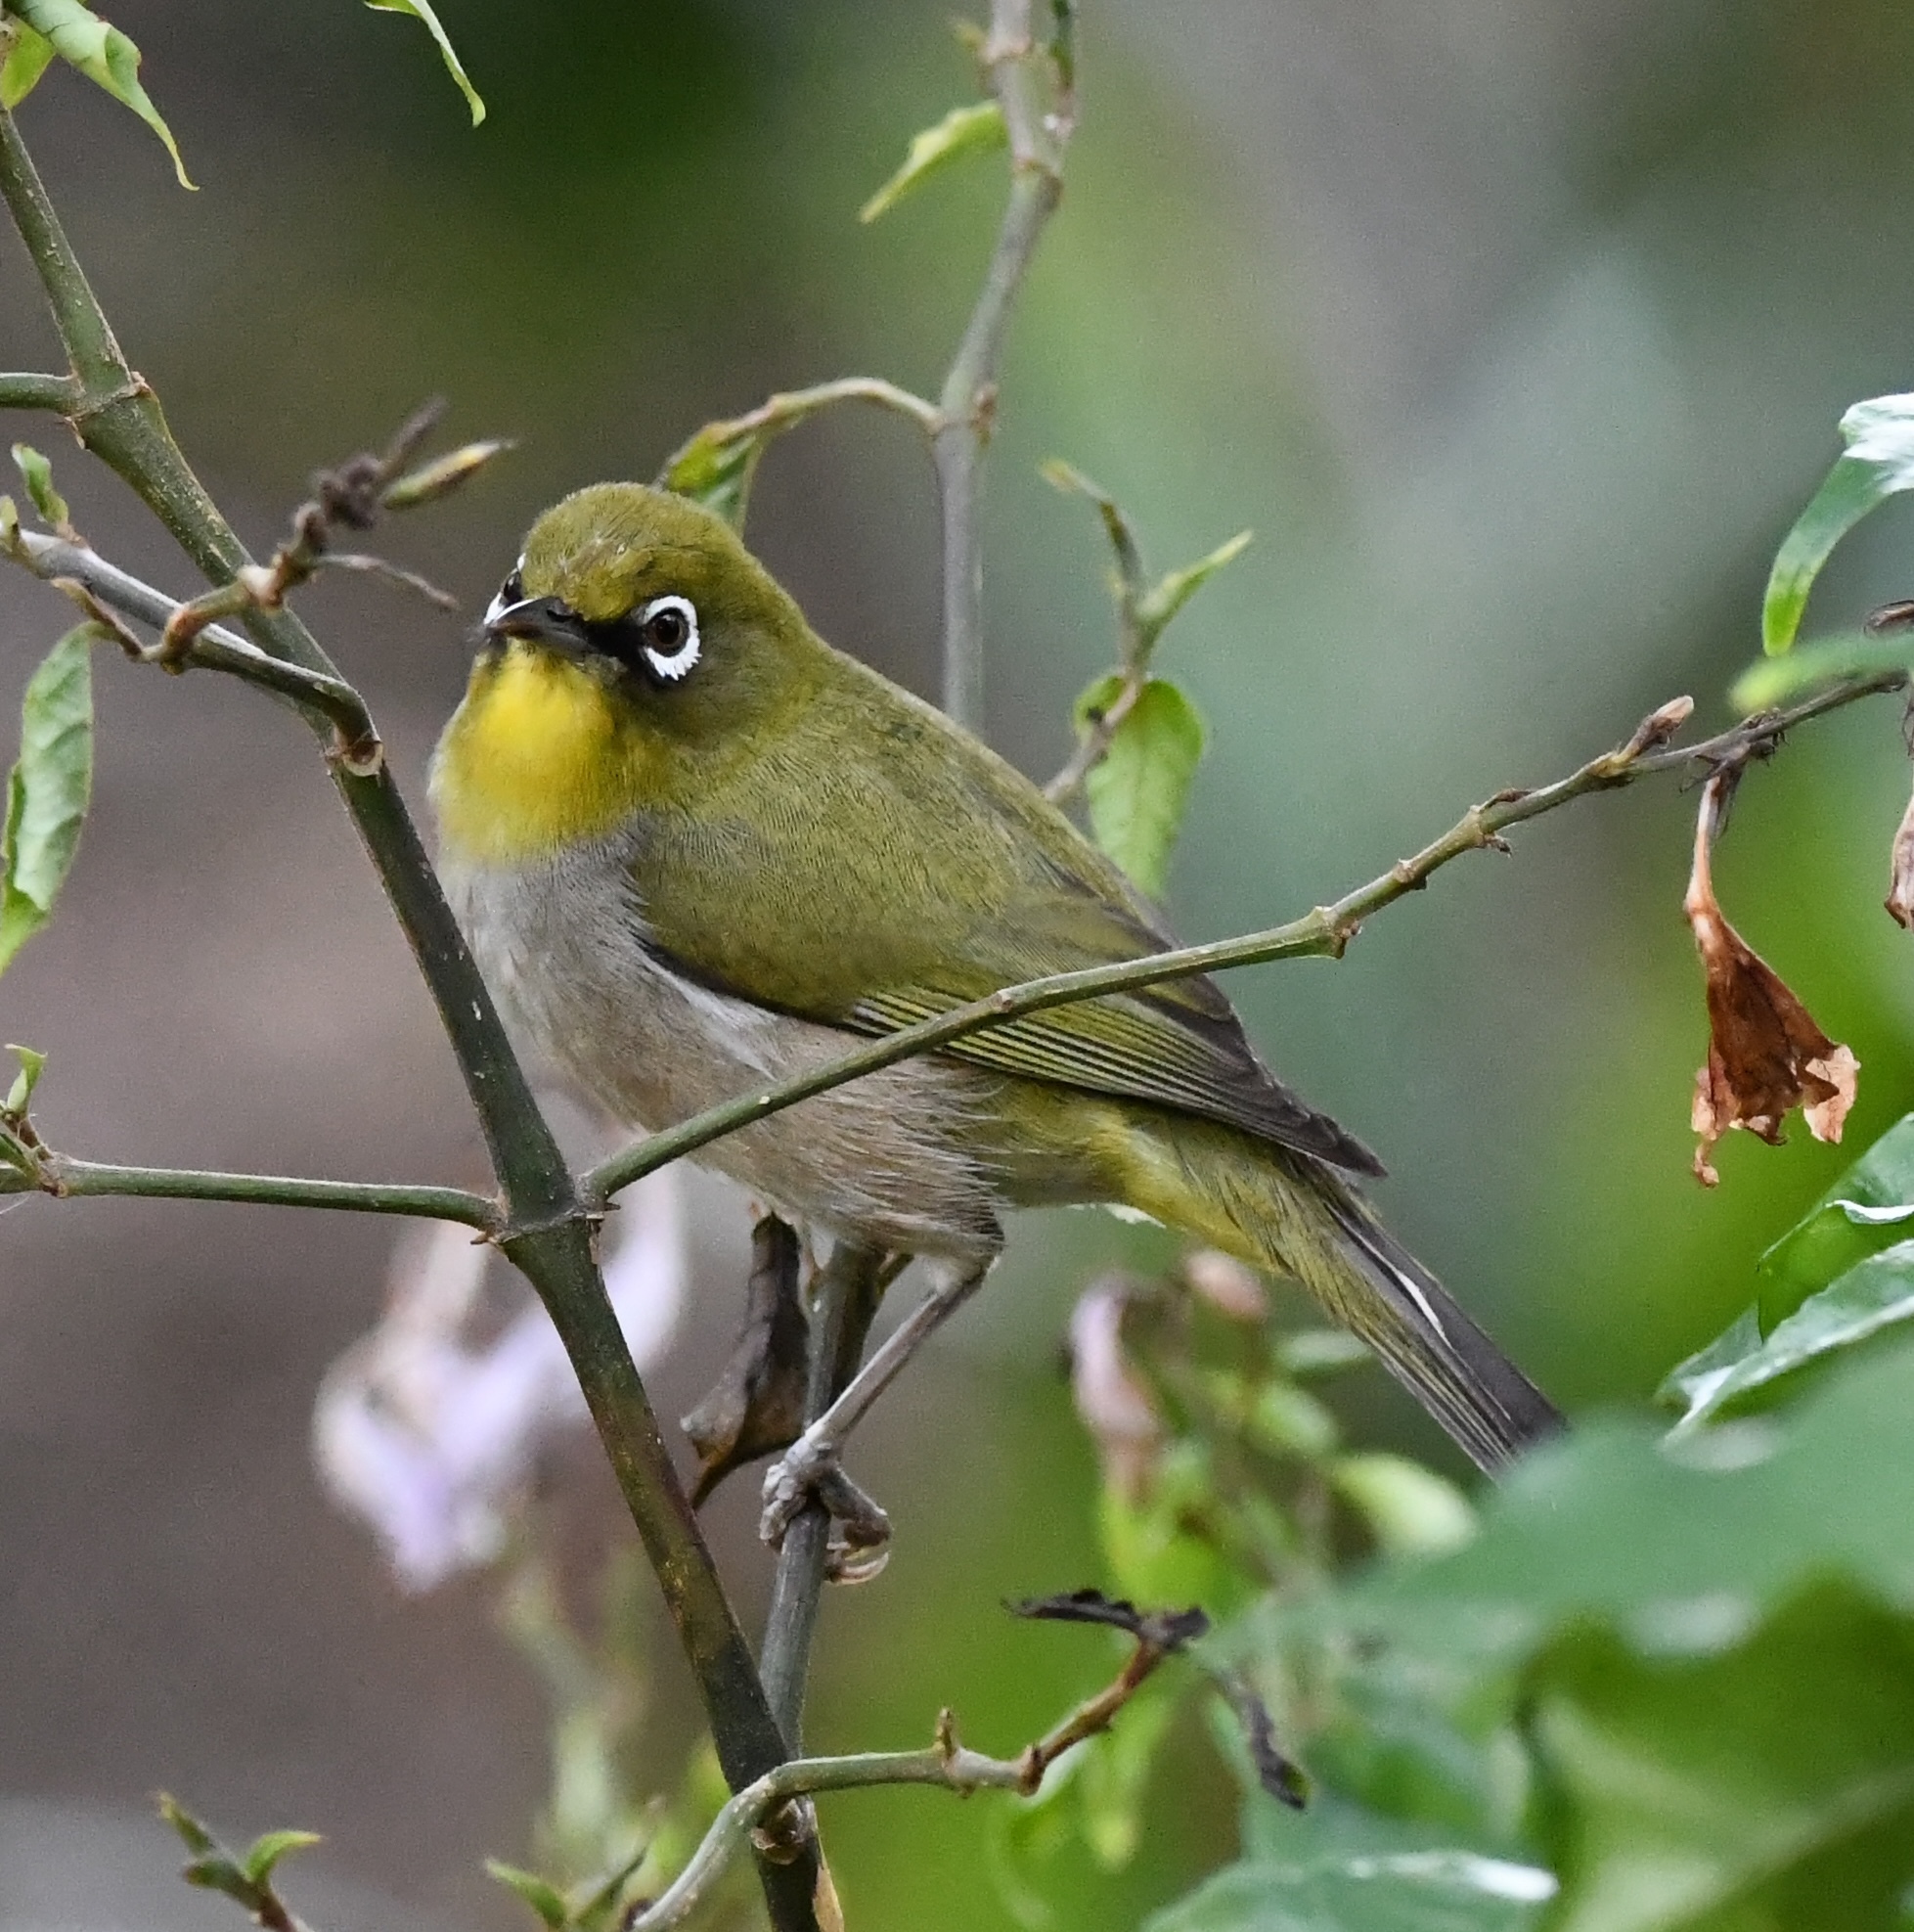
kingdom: Animalia
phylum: Chordata
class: Aves
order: Passeriformes
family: Zosteropidae
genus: Zosterops
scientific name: Zosterops virens
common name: Cape white-eye
